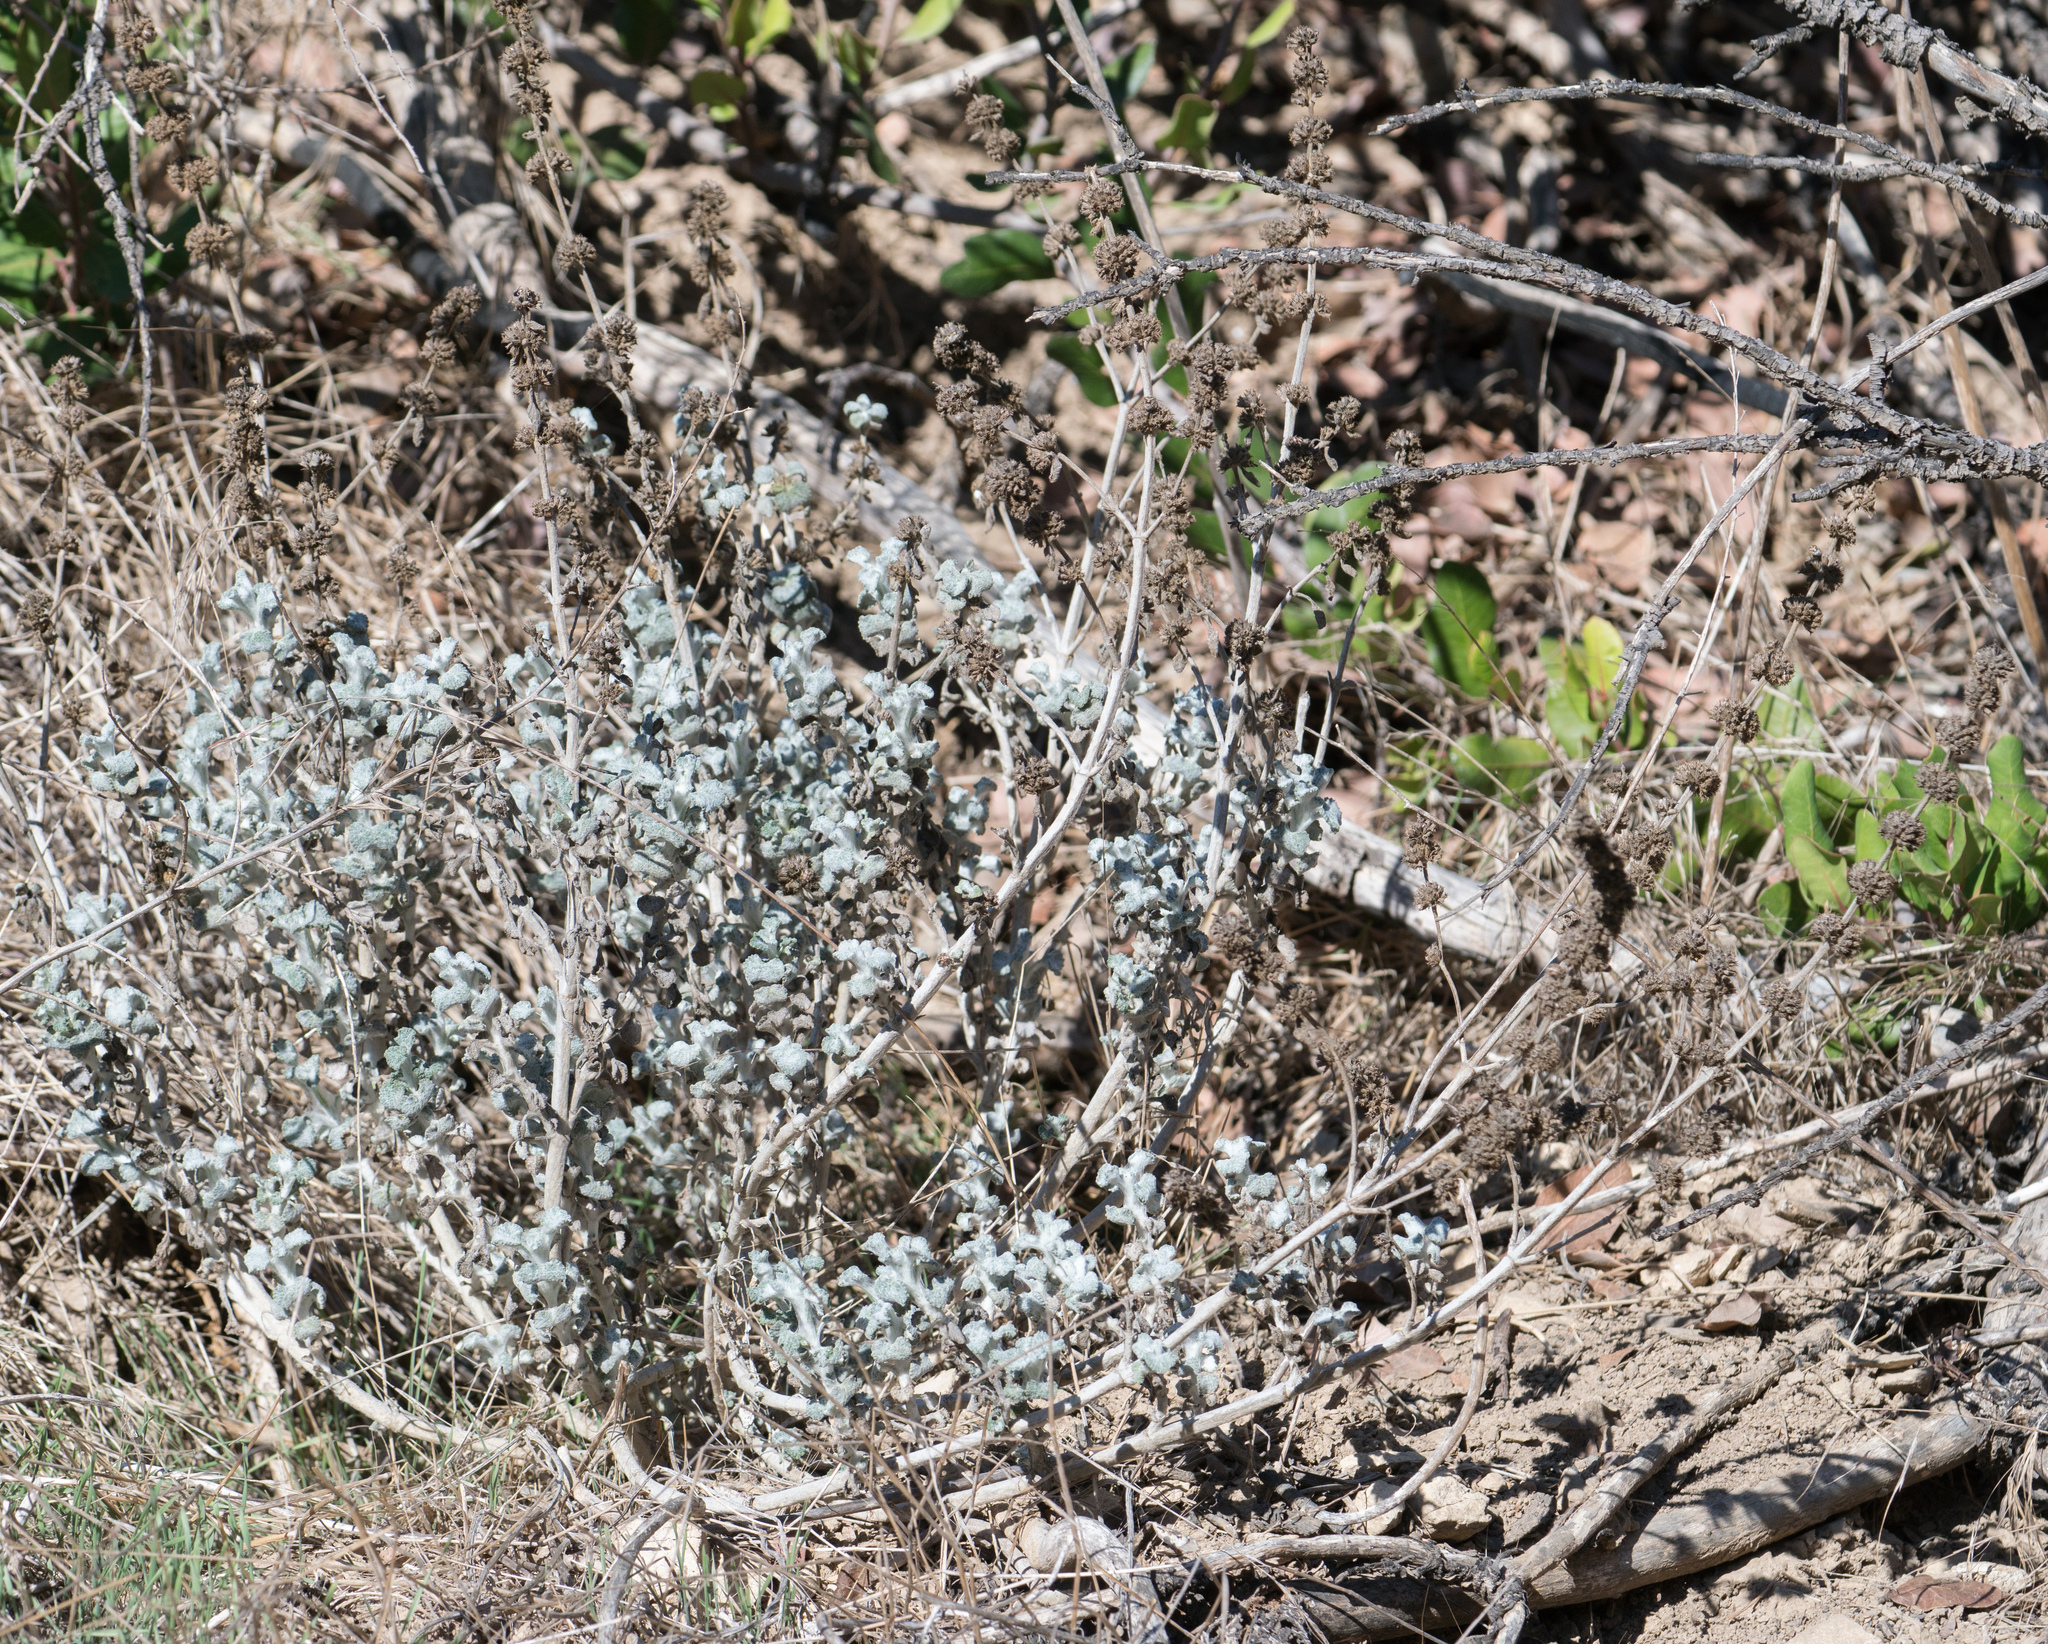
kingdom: Plantae
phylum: Tracheophyta
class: Magnoliopsida
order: Lamiales
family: Lamiaceae
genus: Marrubium
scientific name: Marrubium vulgare
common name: Horehound
